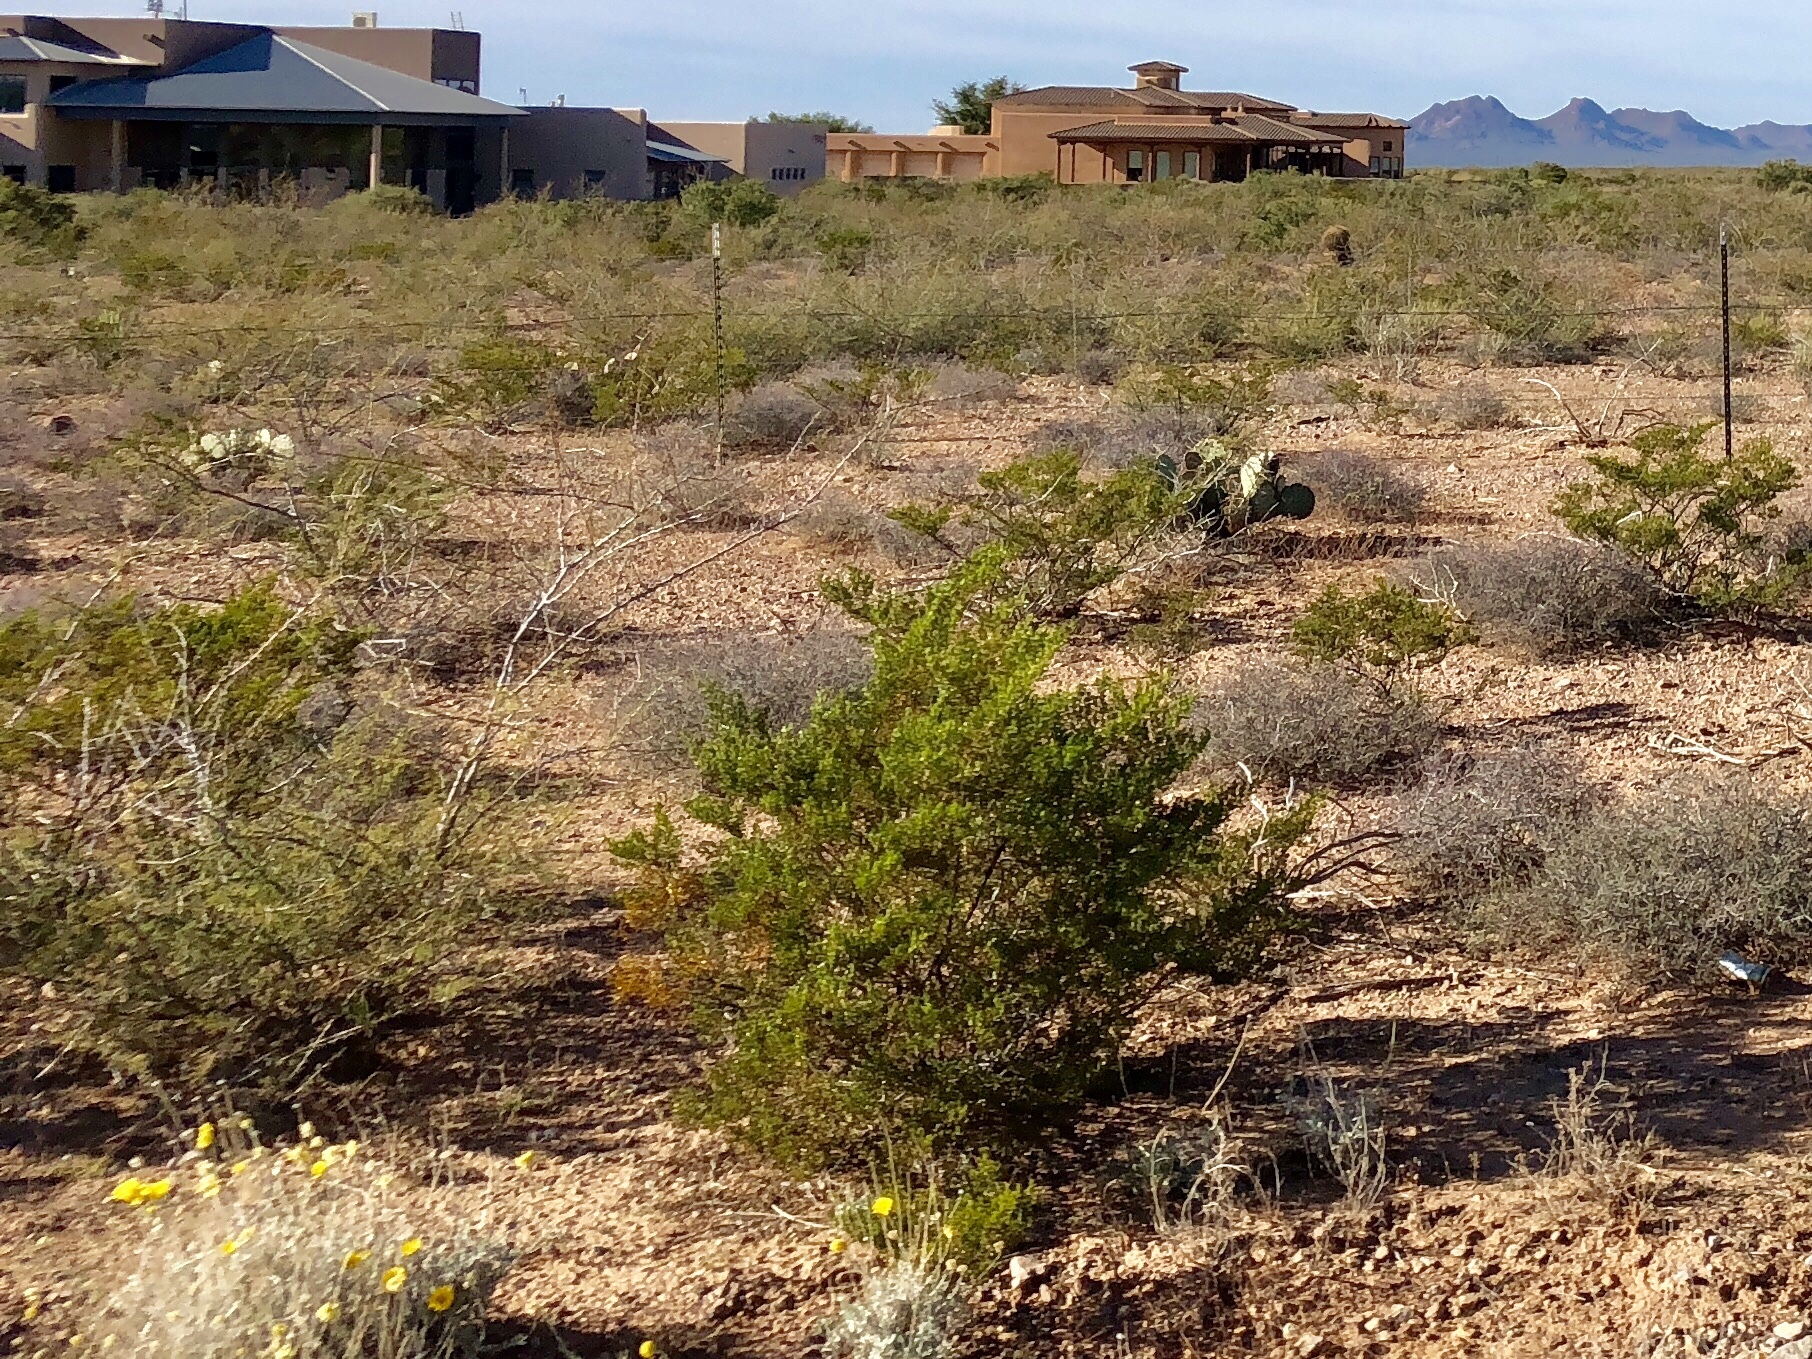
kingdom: Plantae
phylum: Tracheophyta
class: Magnoliopsida
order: Zygophyllales
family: Zygophyllaceae
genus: Larrea
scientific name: Larrea tridentata
